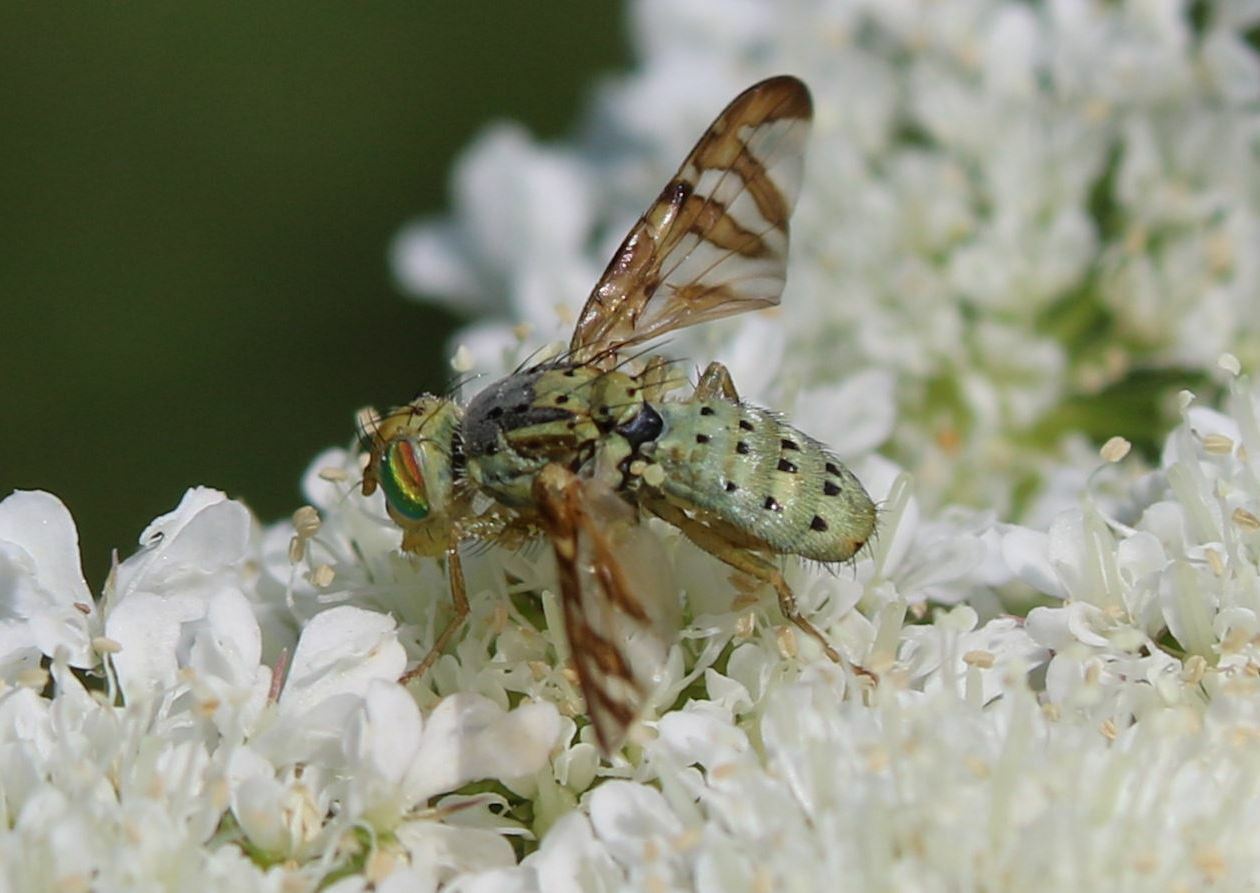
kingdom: Animalia
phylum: Arthropoda
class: Insecta
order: Diptera
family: Tephritidae
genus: Orellia
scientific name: Orellia falcata
